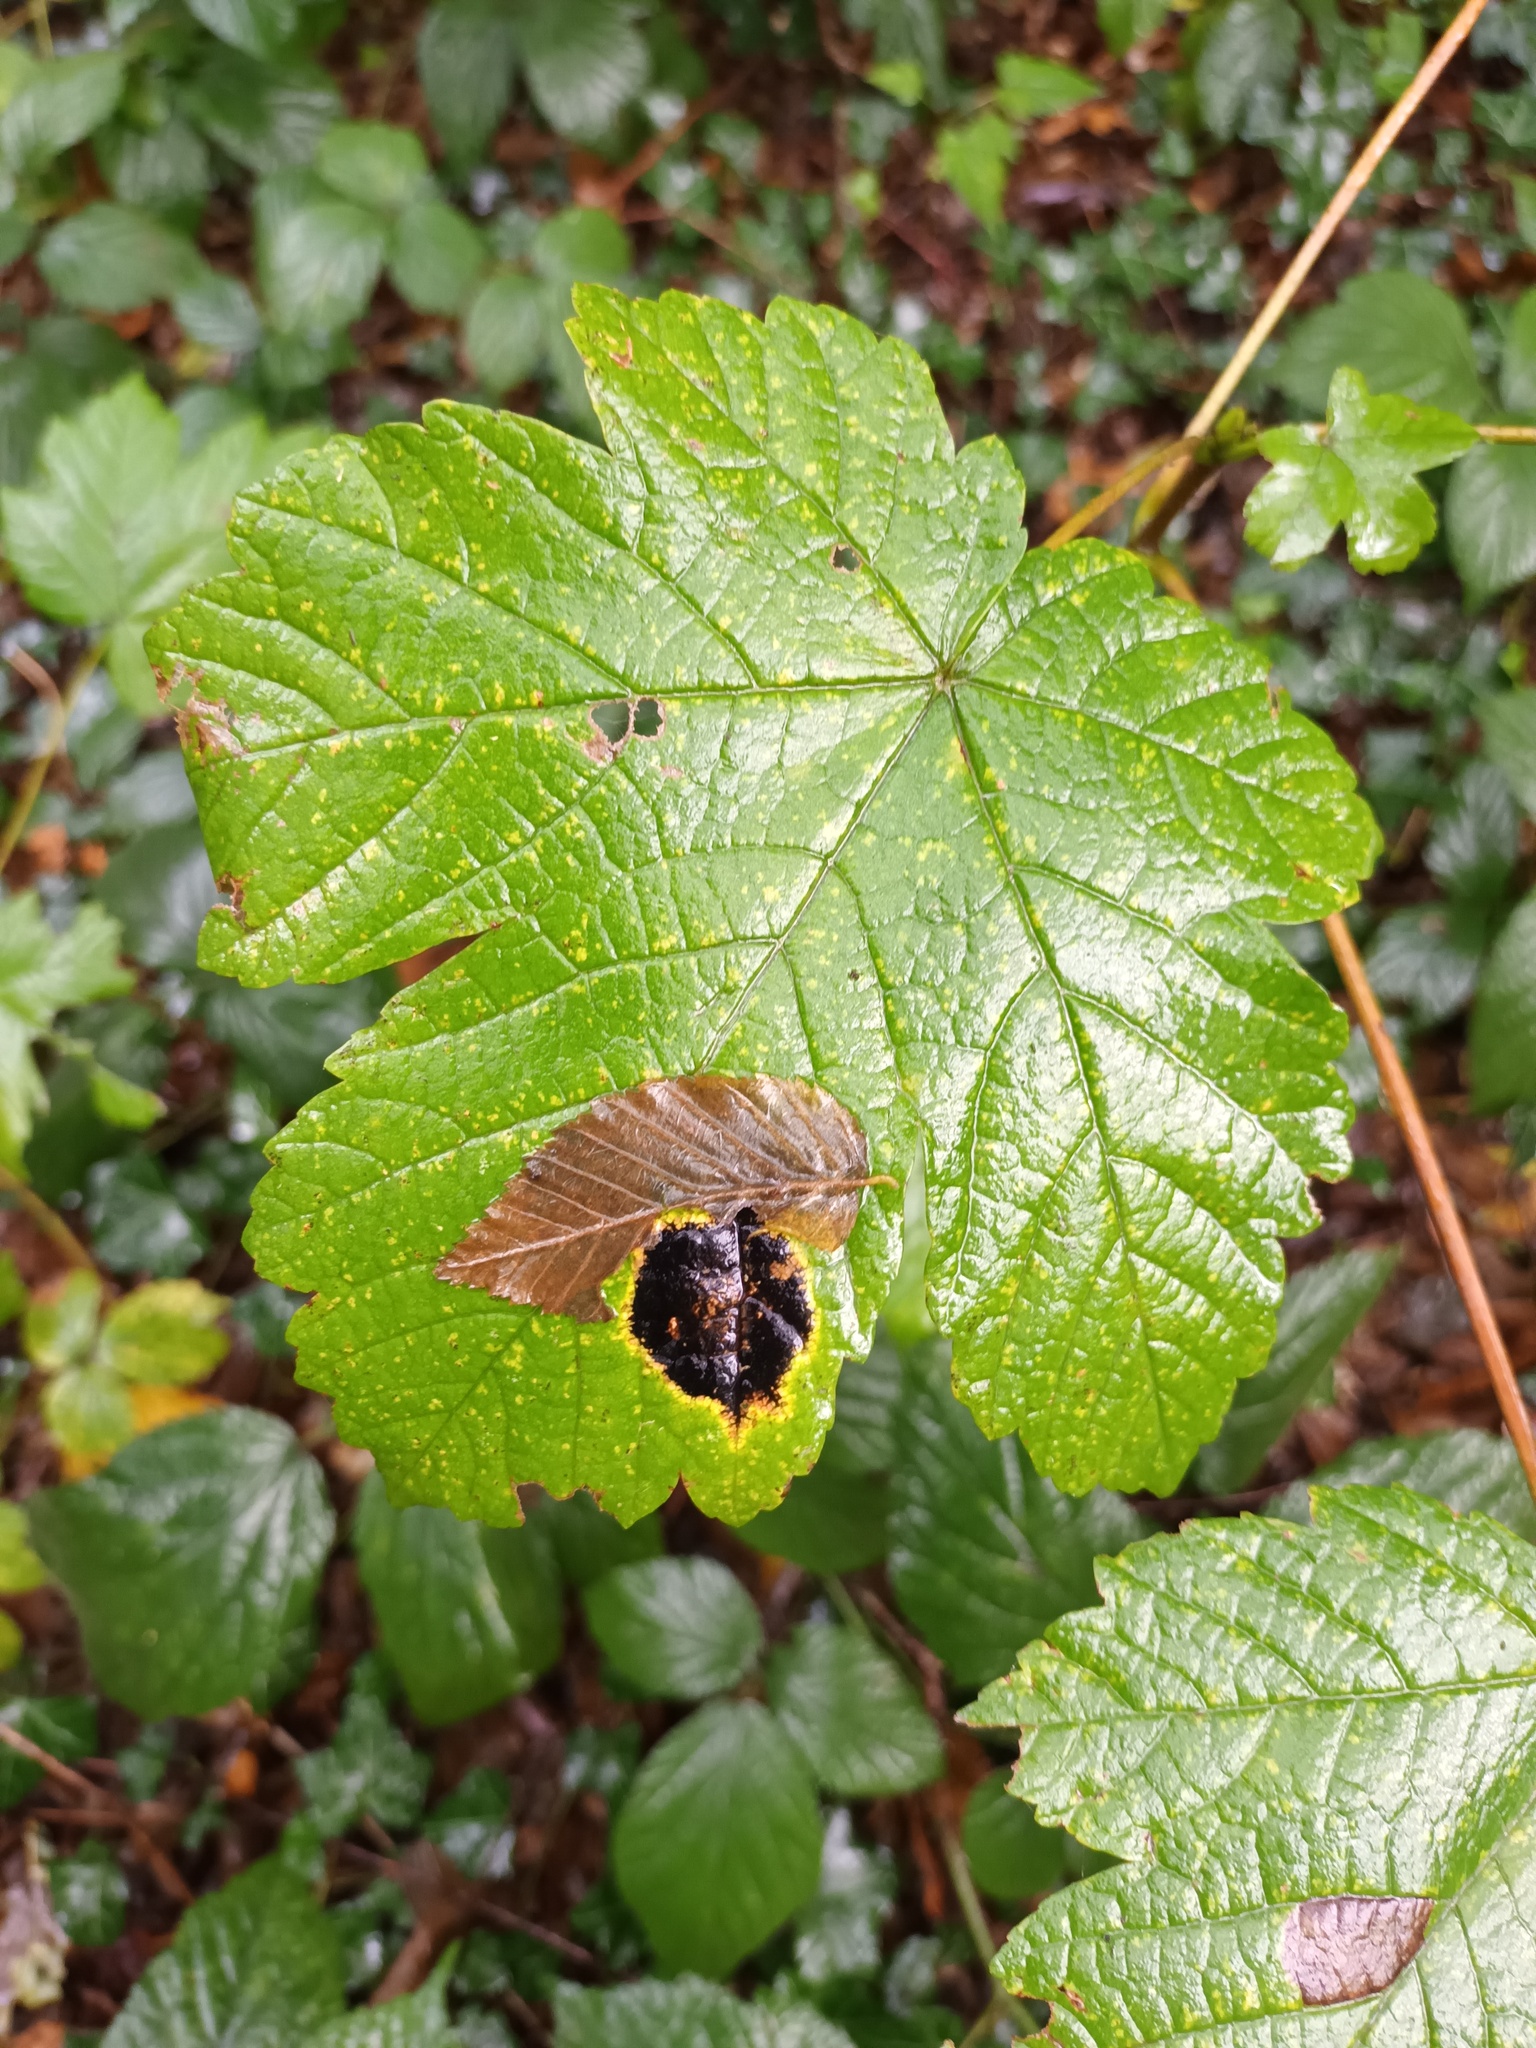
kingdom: Plantae
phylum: Tracheophyta
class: Magnoliopsida
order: Sapindales
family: Sapindaceae
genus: Acer
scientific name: Acer pseudoplatanus
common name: Sycamore
